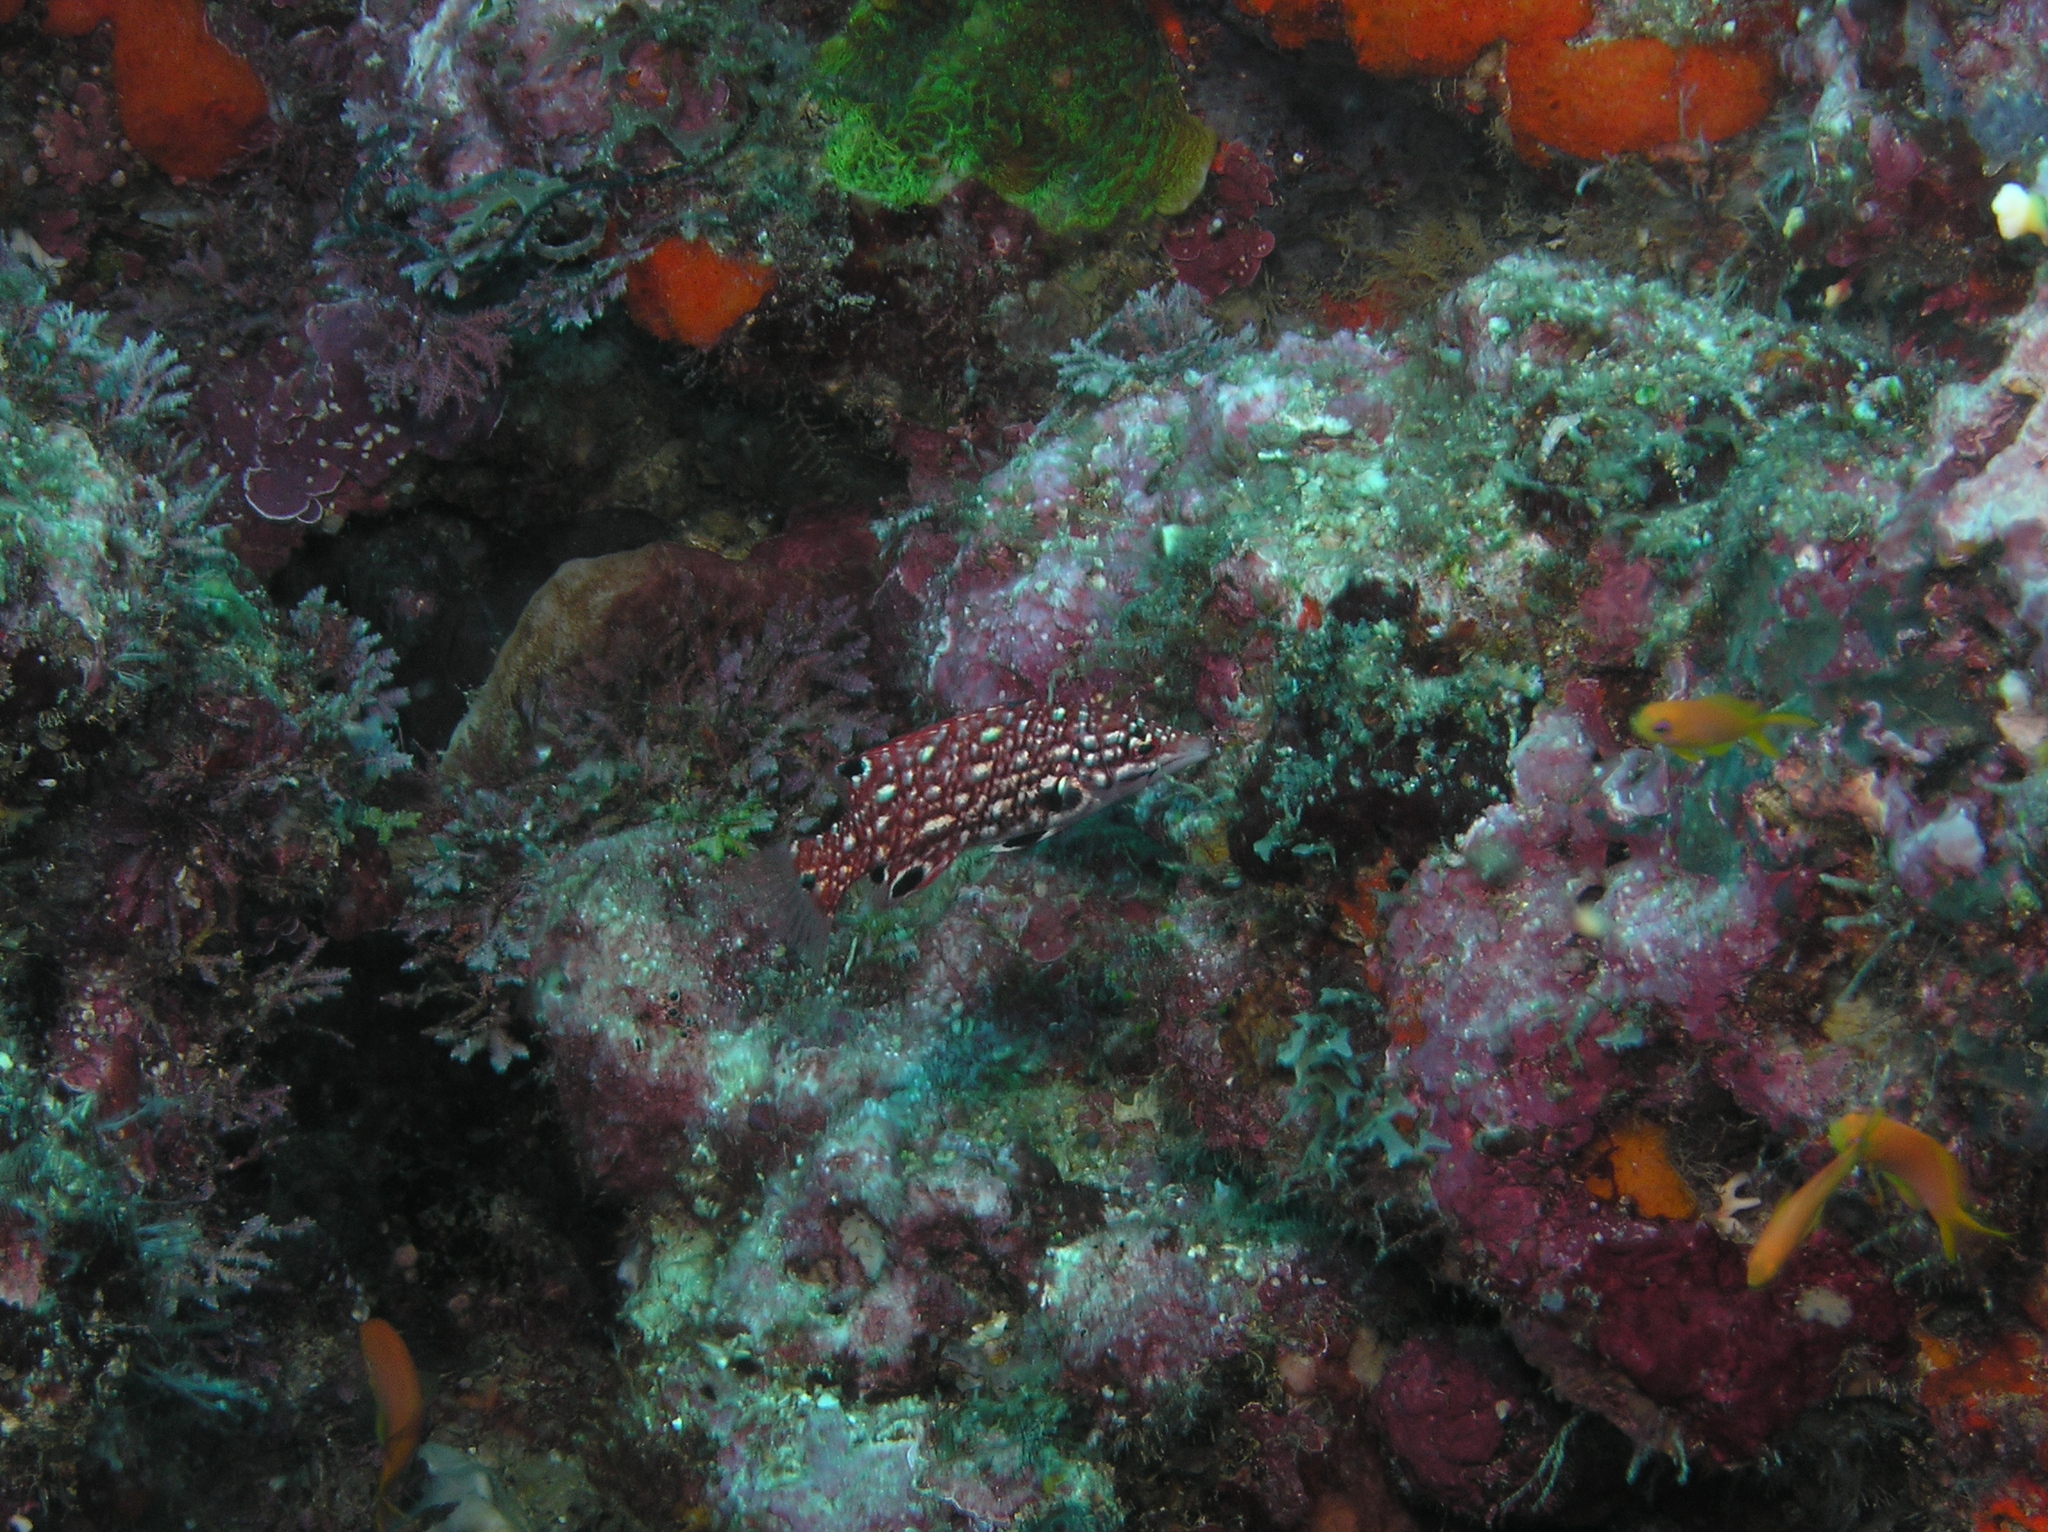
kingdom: Animalia
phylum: Chordata
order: Perciformes
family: Labridae
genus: Bodianus
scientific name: Bodianus dictynna
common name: Diana's hogfish
